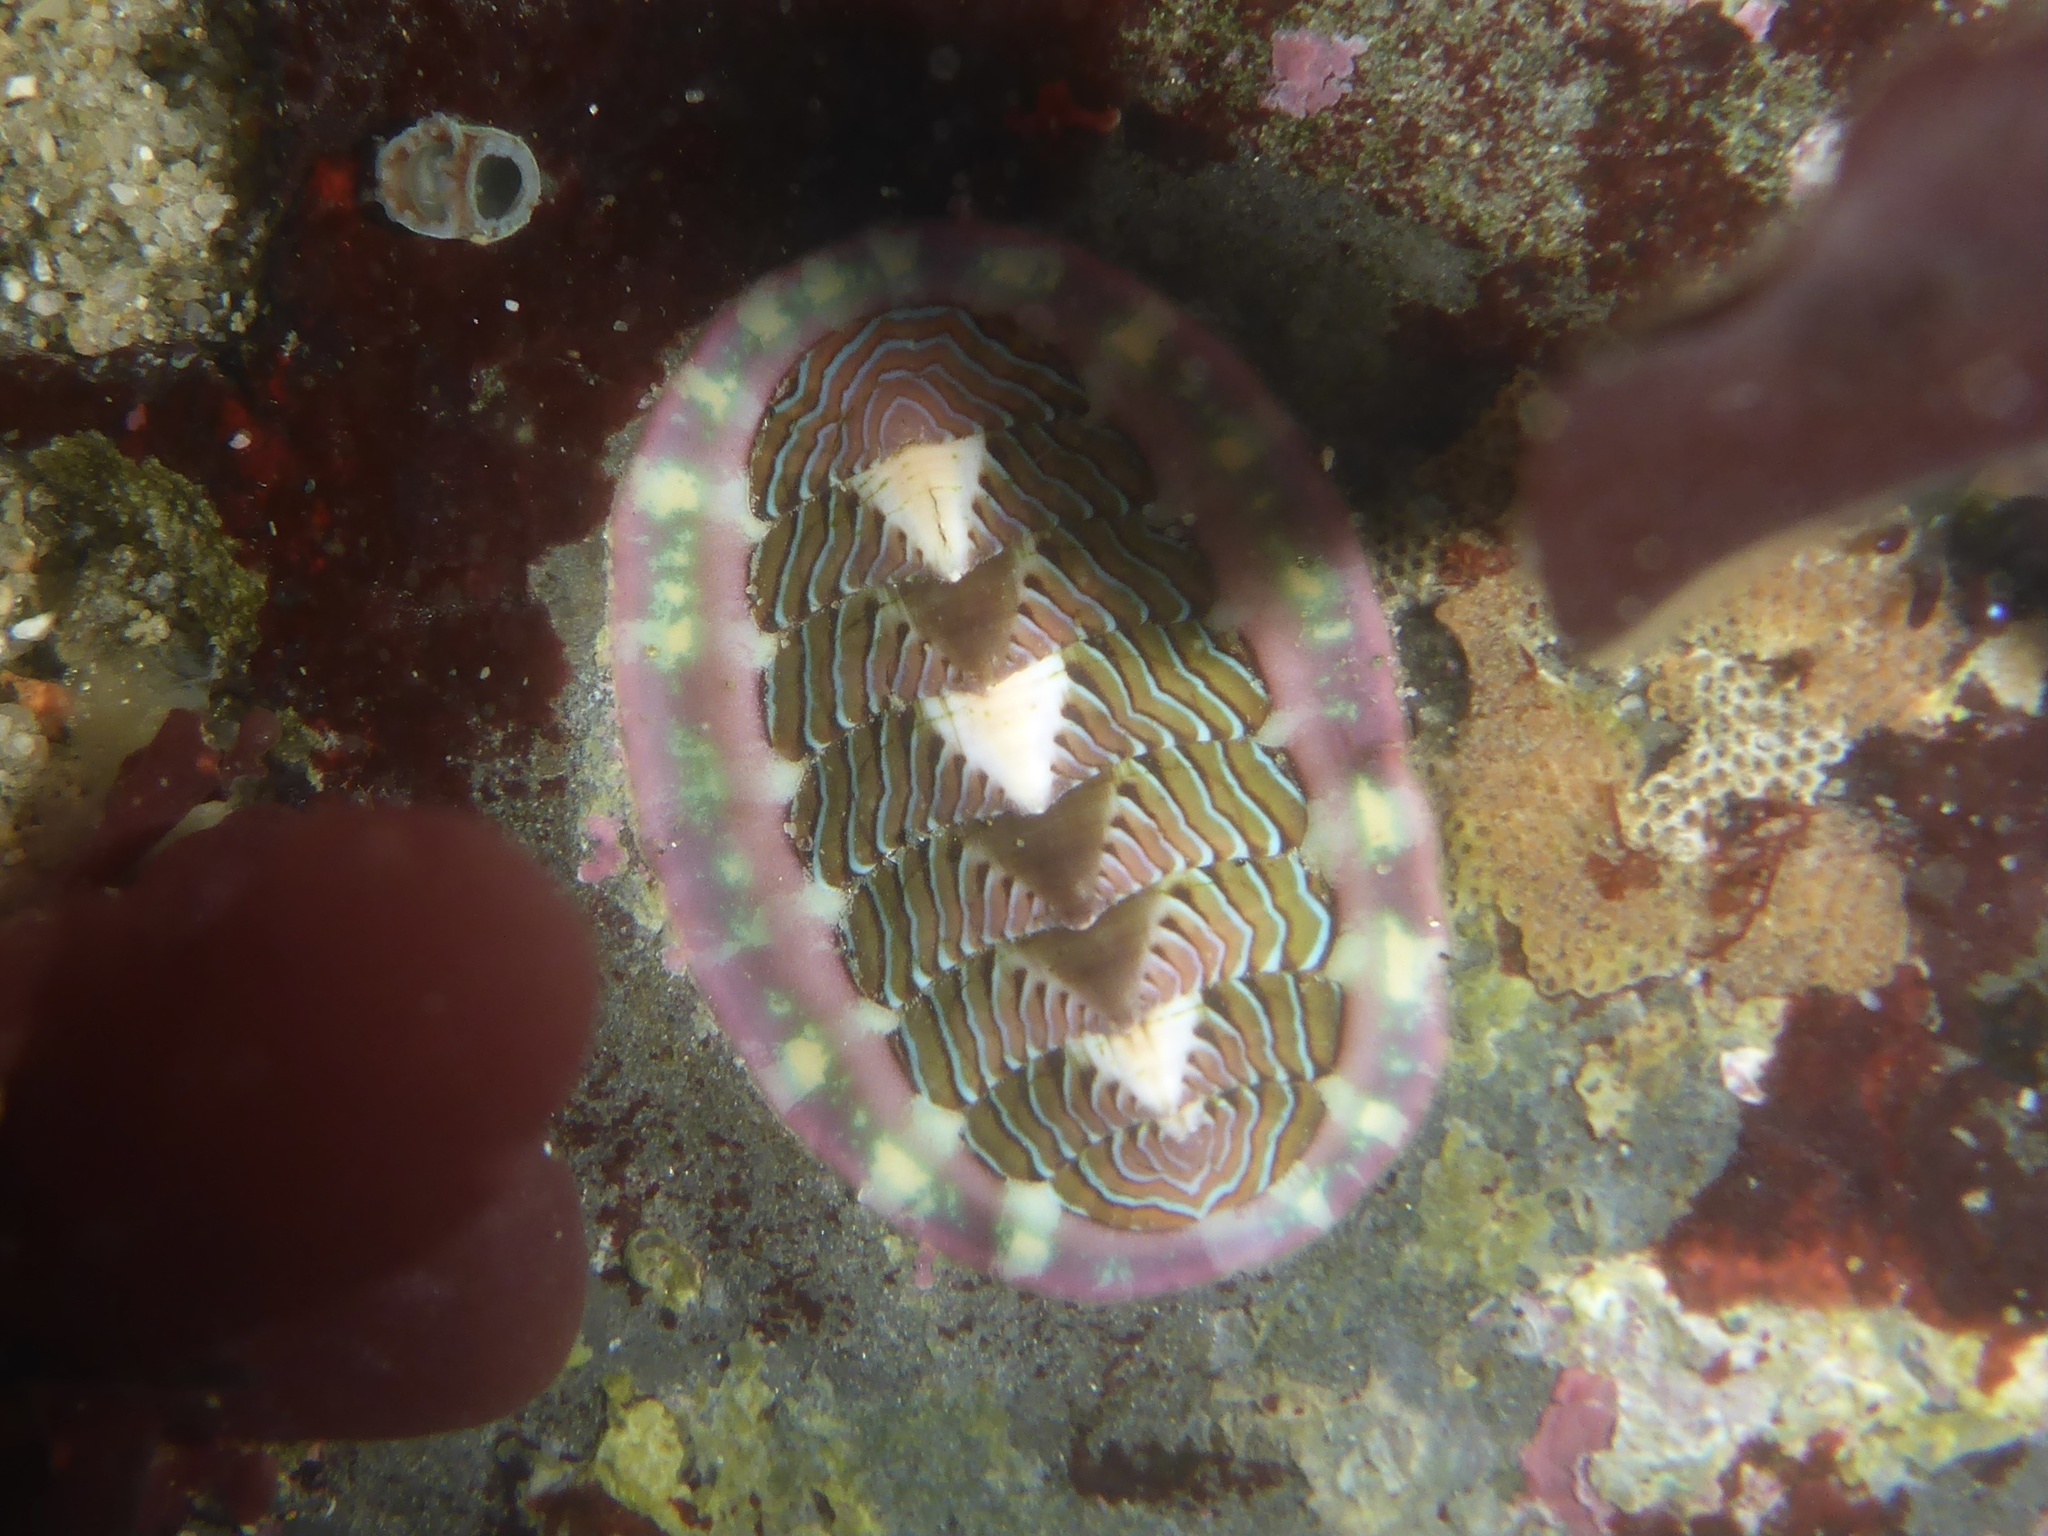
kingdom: Animalia
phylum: Mollusca
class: Polyplacophora
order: Chitonida
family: Tonicellidae
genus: Tonicella
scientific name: Tonicella lineata
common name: Lined chiton
